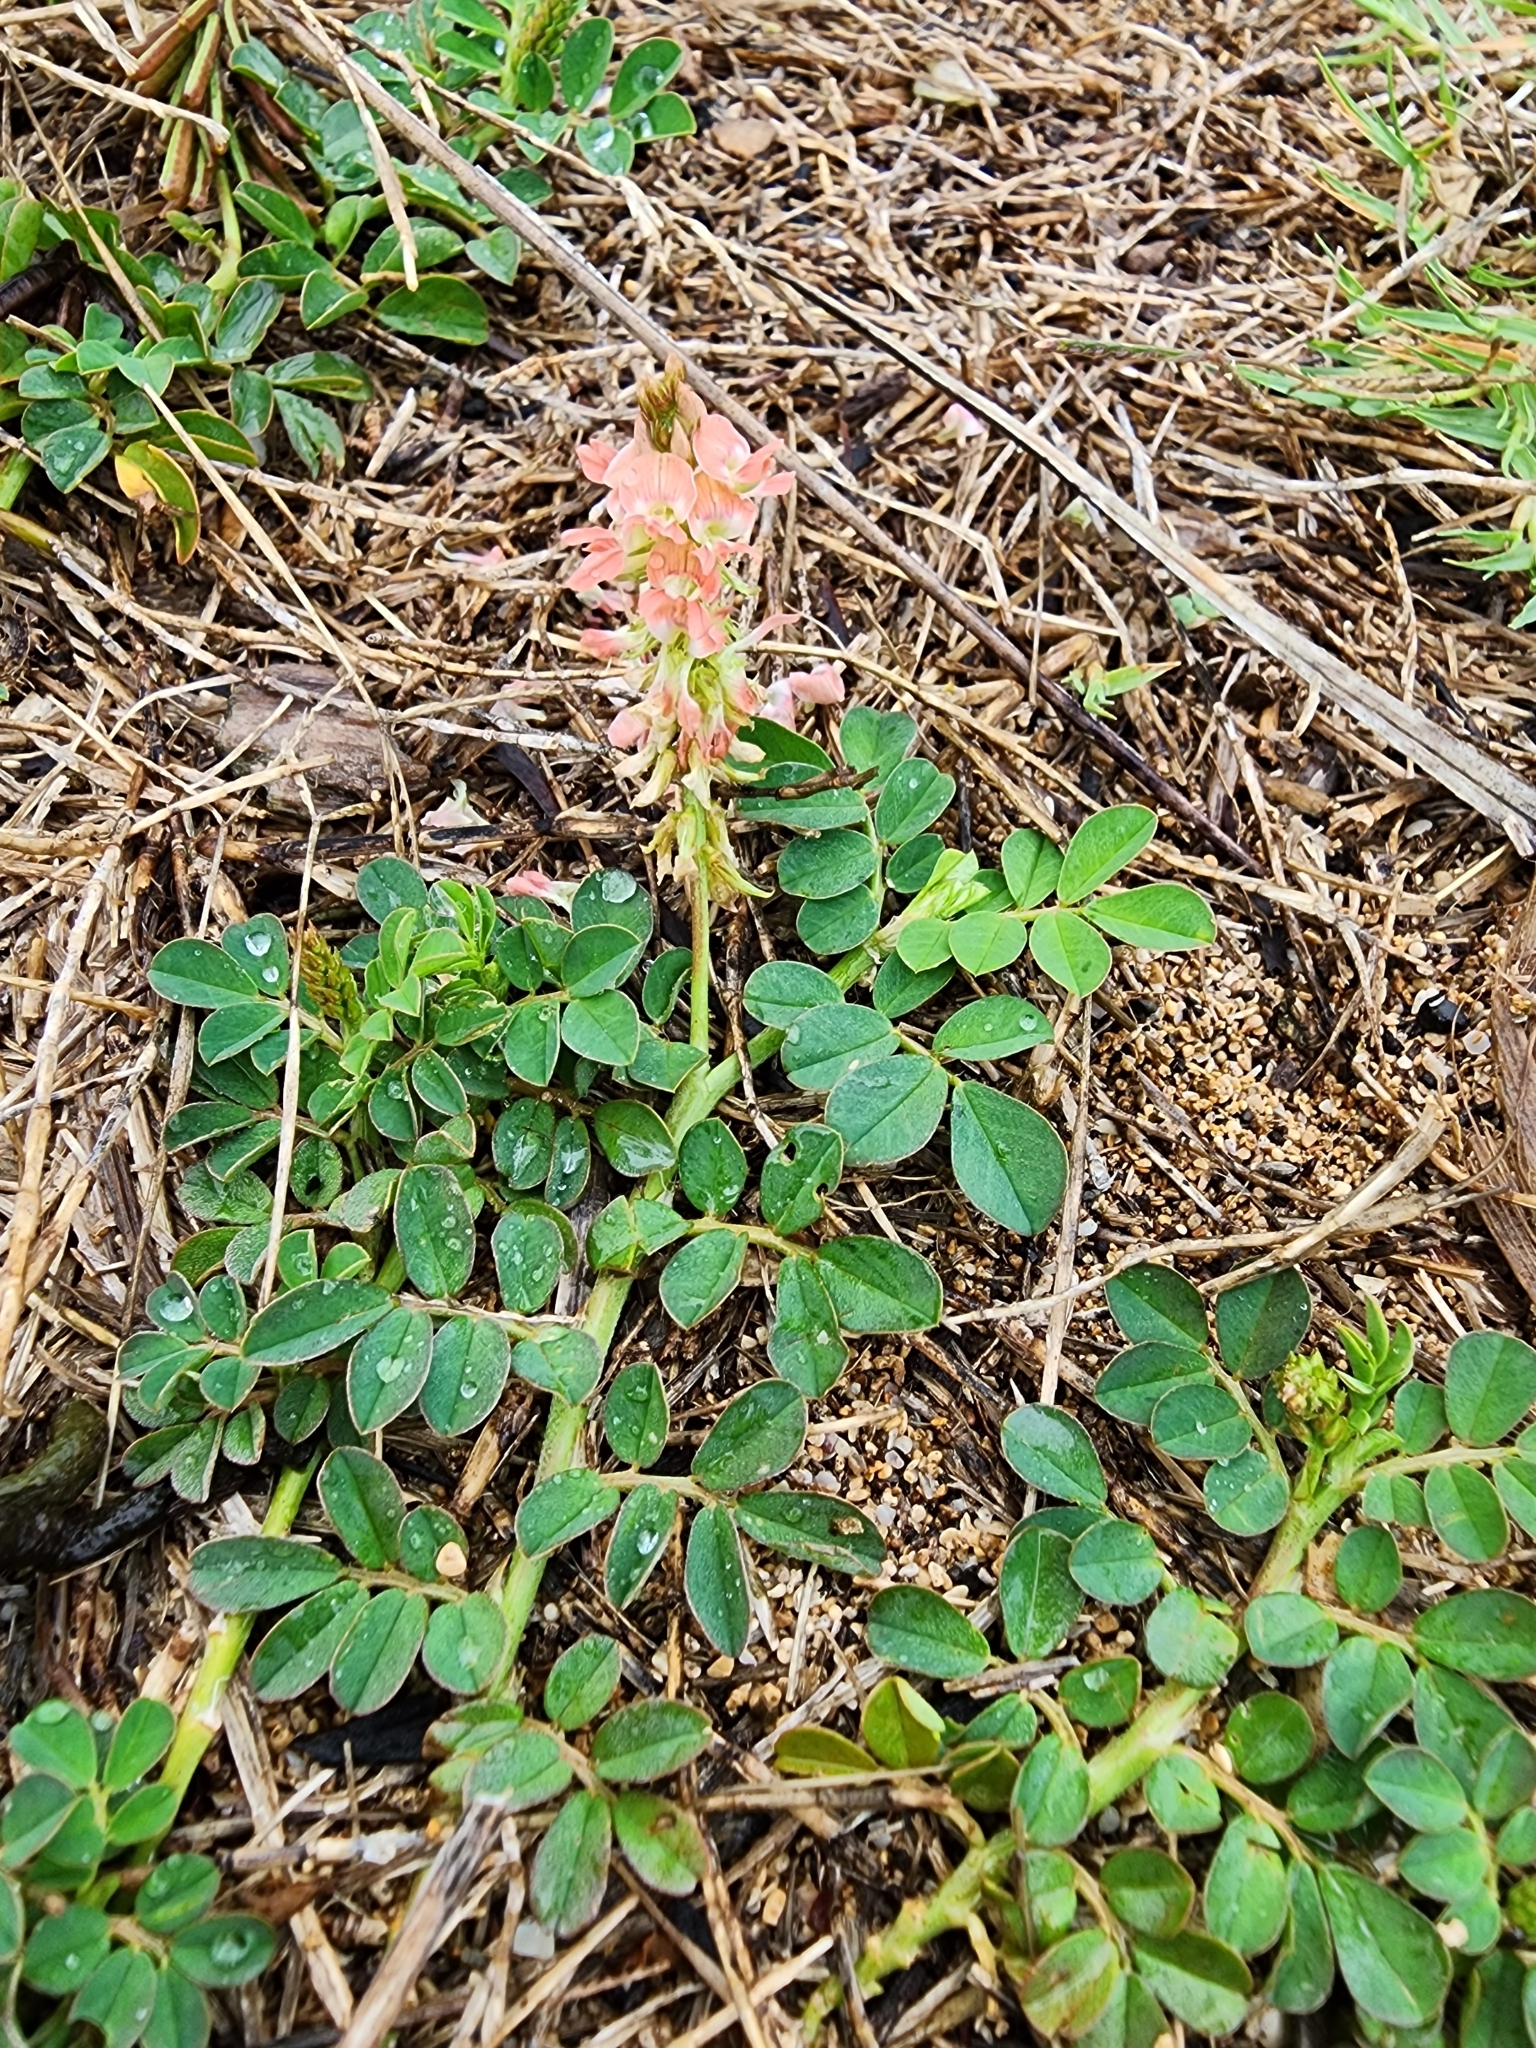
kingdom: Plantae
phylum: Tracheophyta
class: Magnoliopsida
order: Fabales
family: Fabaceae
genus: Indigofera
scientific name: Indigofera spicata
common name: Creeping indigo
